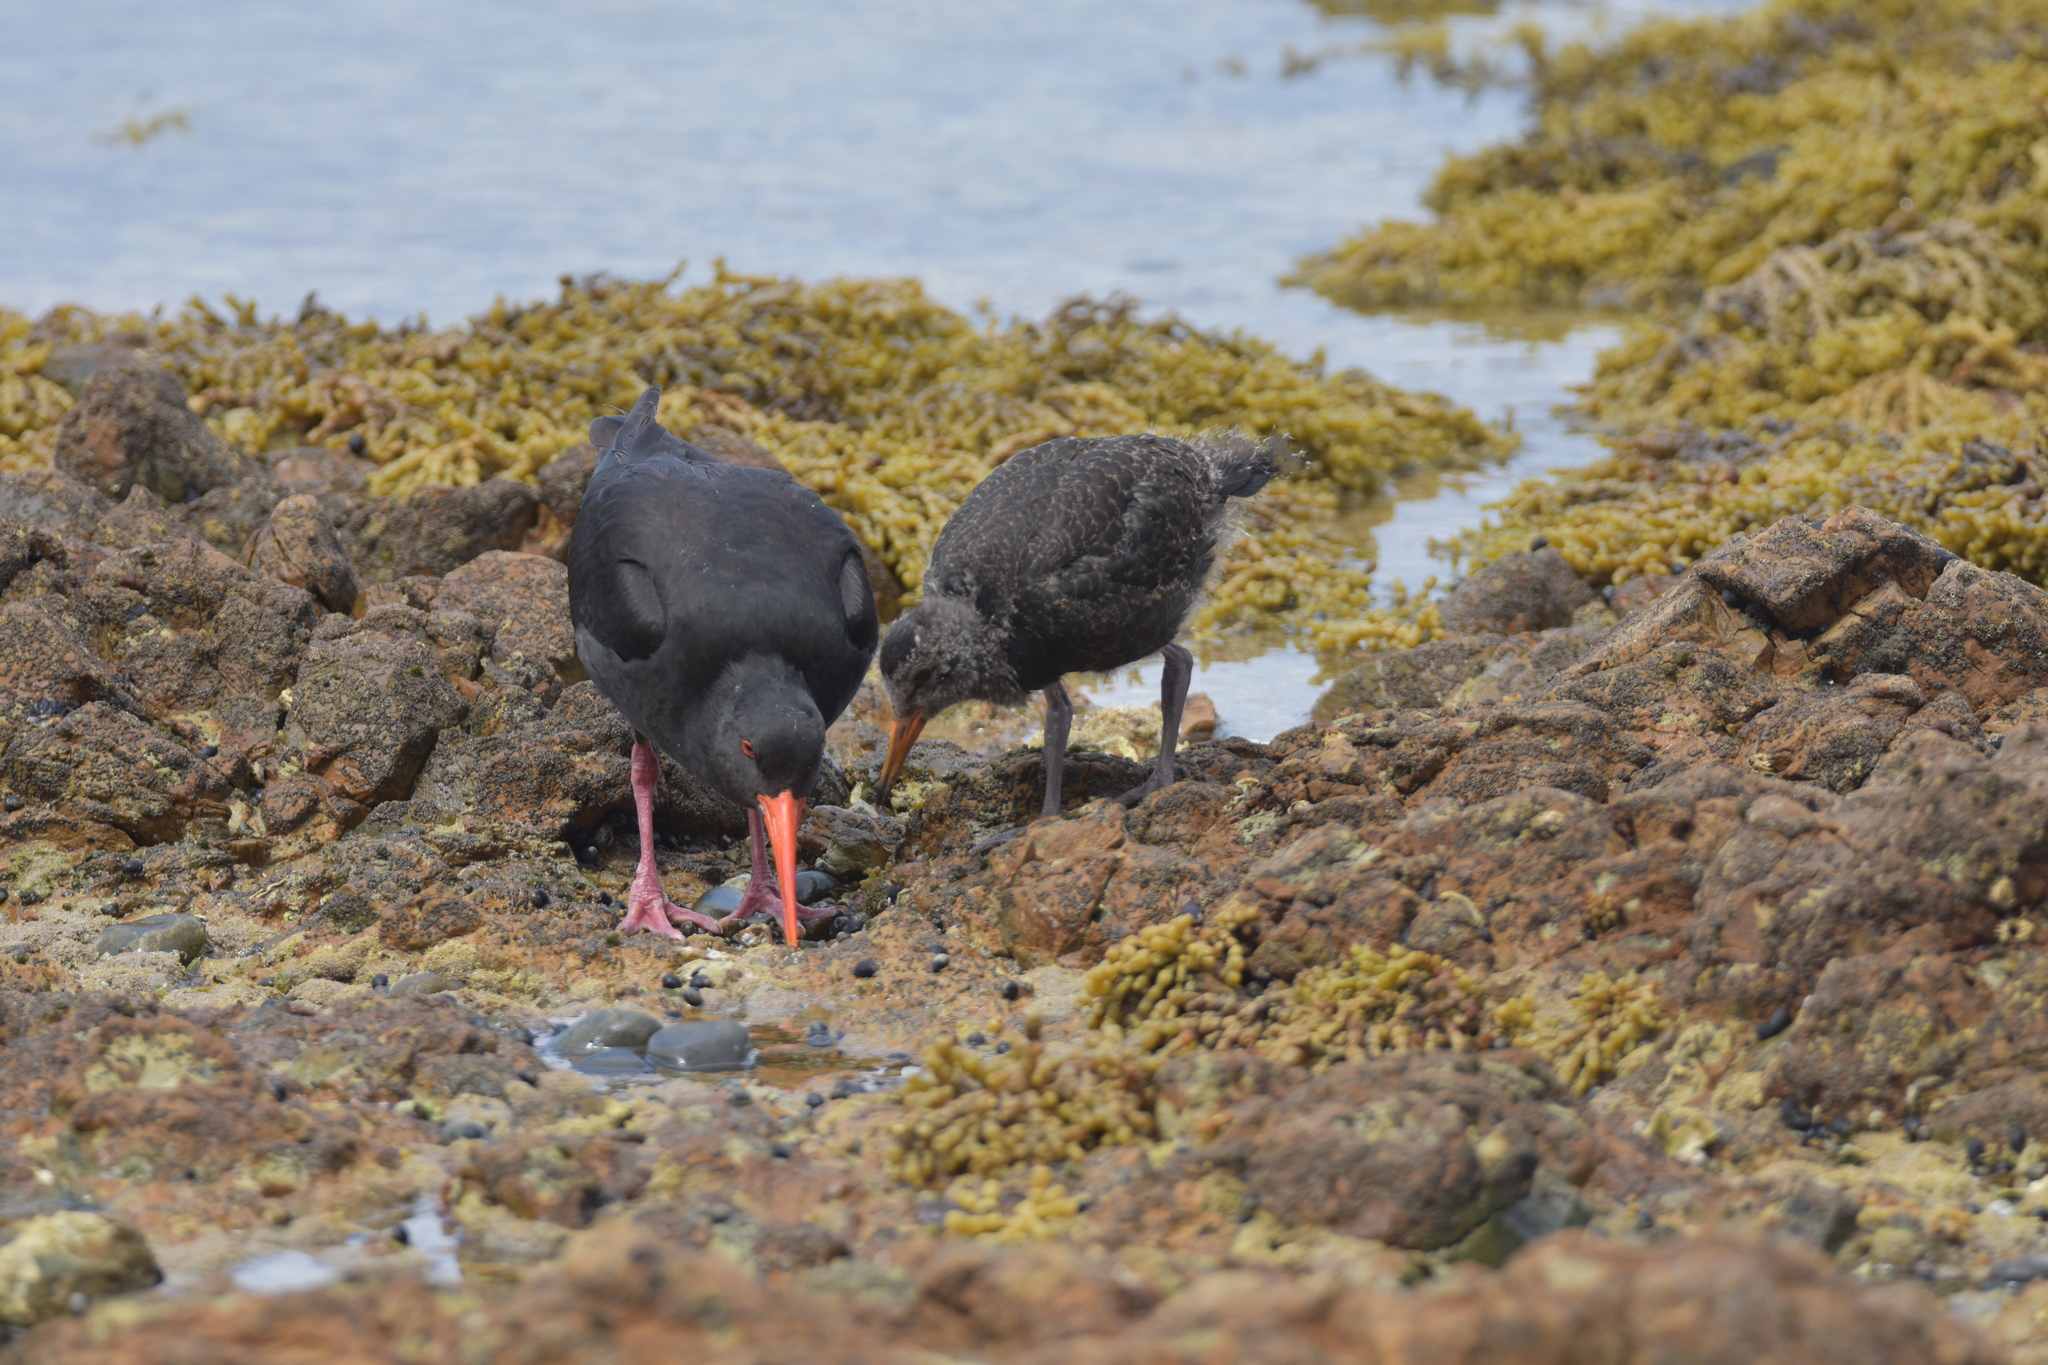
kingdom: Animalia
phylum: Chordata
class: Aves
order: Charadriiformes
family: Haematopodidae
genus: Haematopus
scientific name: Haematopus unicolor
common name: Variable oystercatcher
